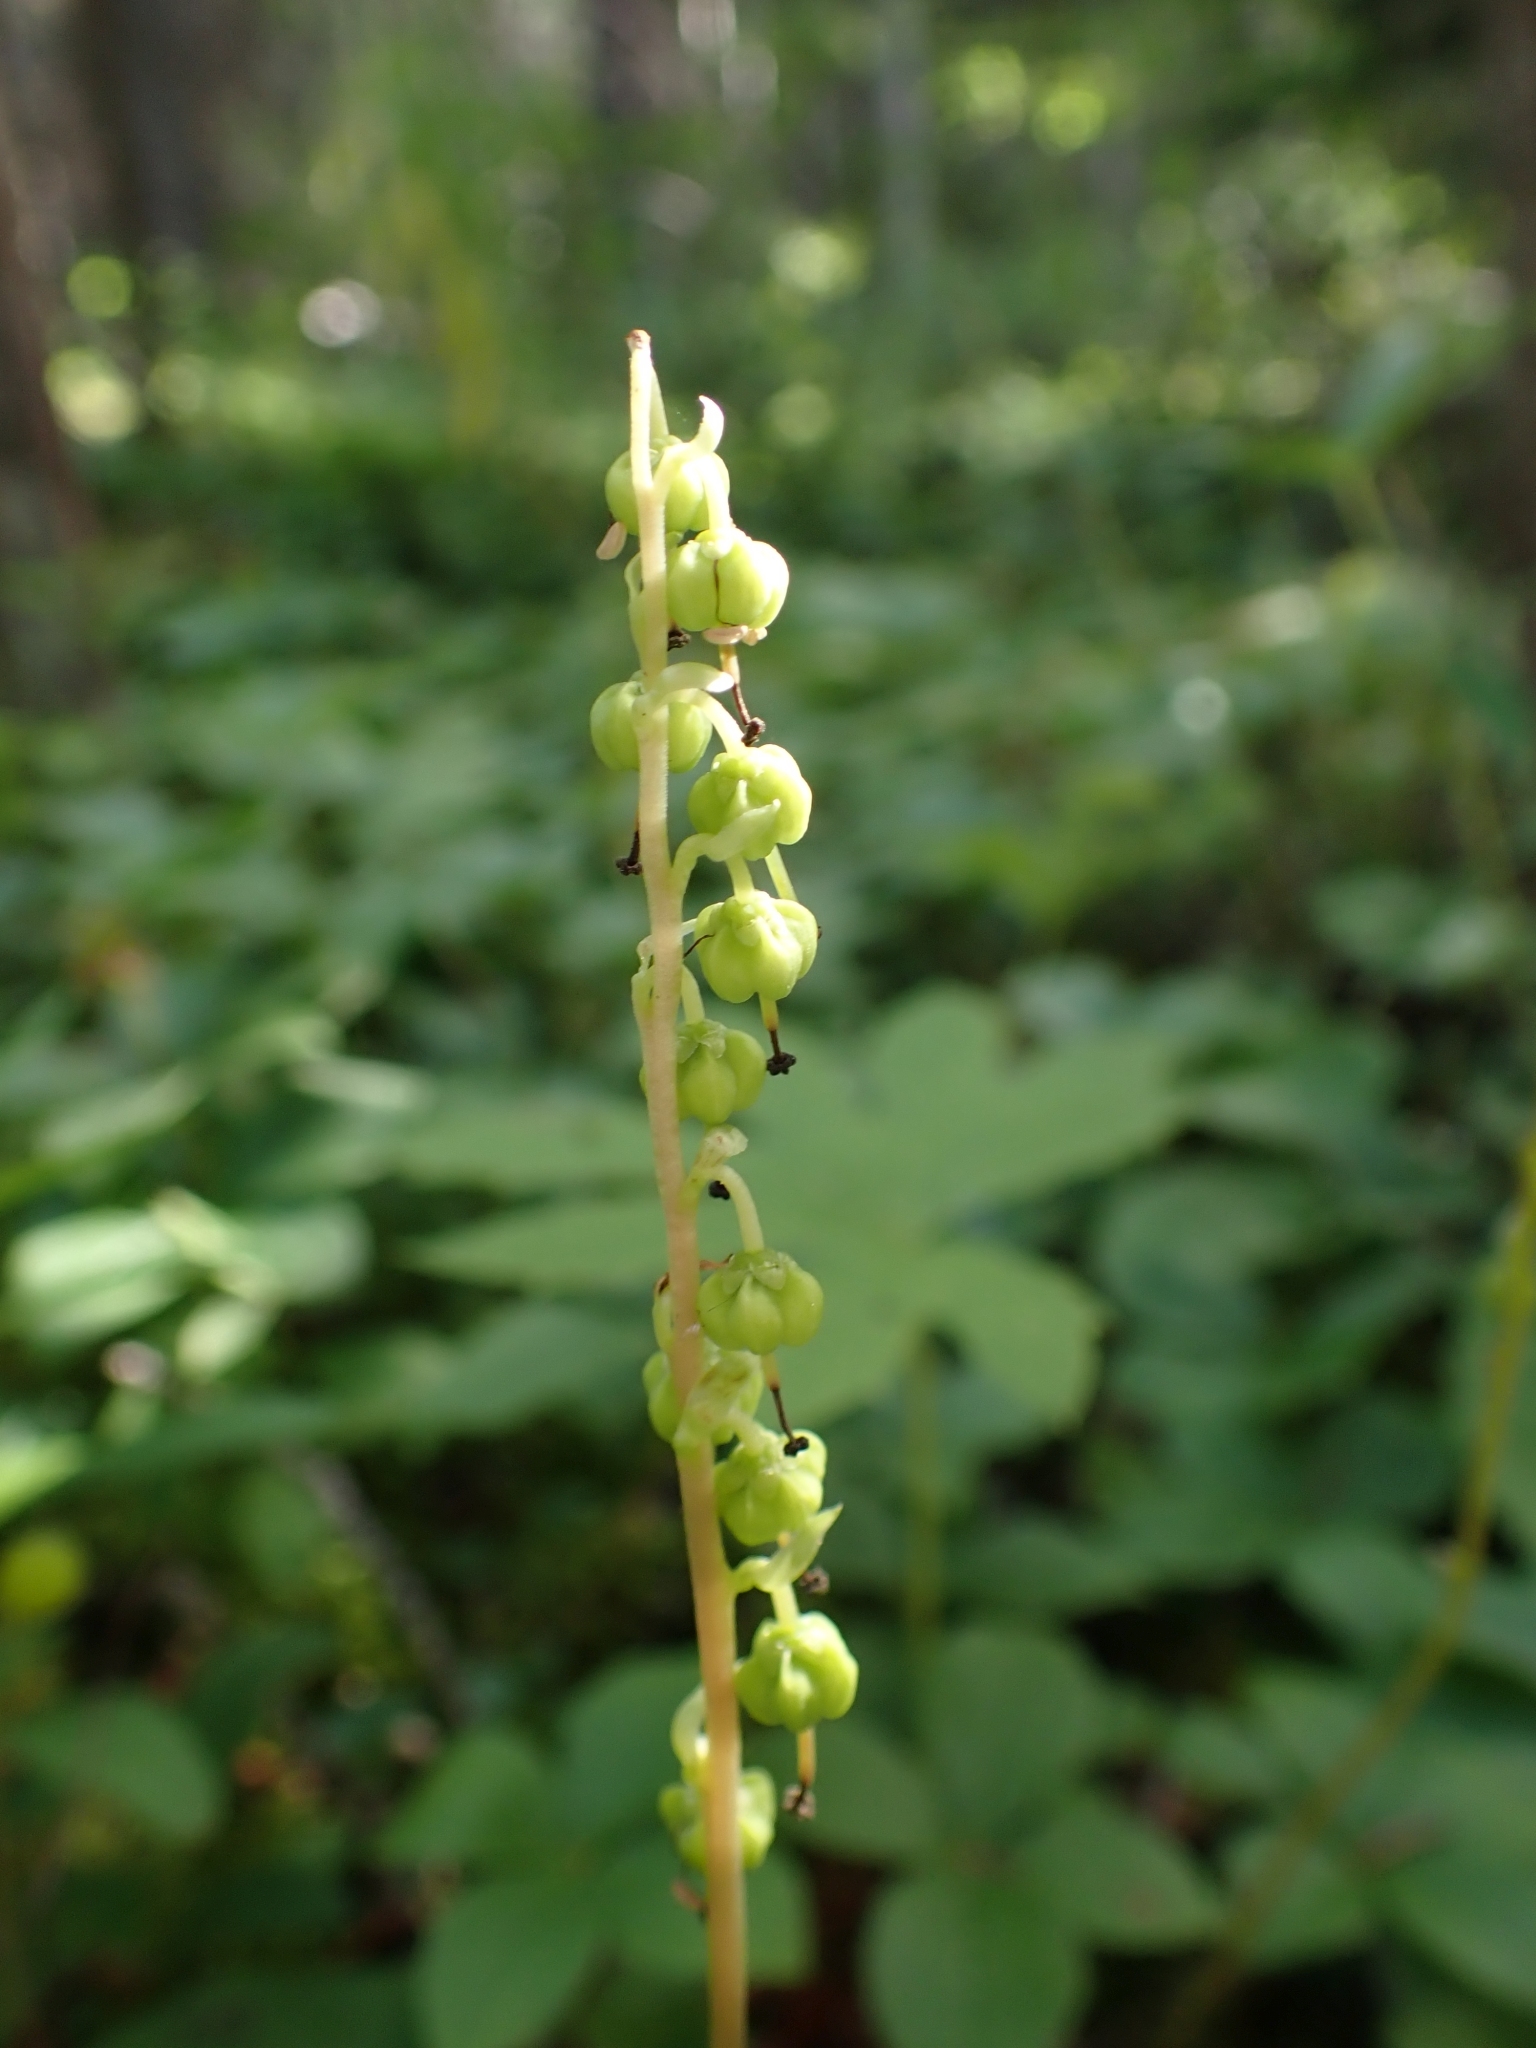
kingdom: Plantae
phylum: Tracheophyta
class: Magnoliopsida
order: Ericales
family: Ericaceae
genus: Orthilia
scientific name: Orthilia secunda
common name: One-sided orthilia
